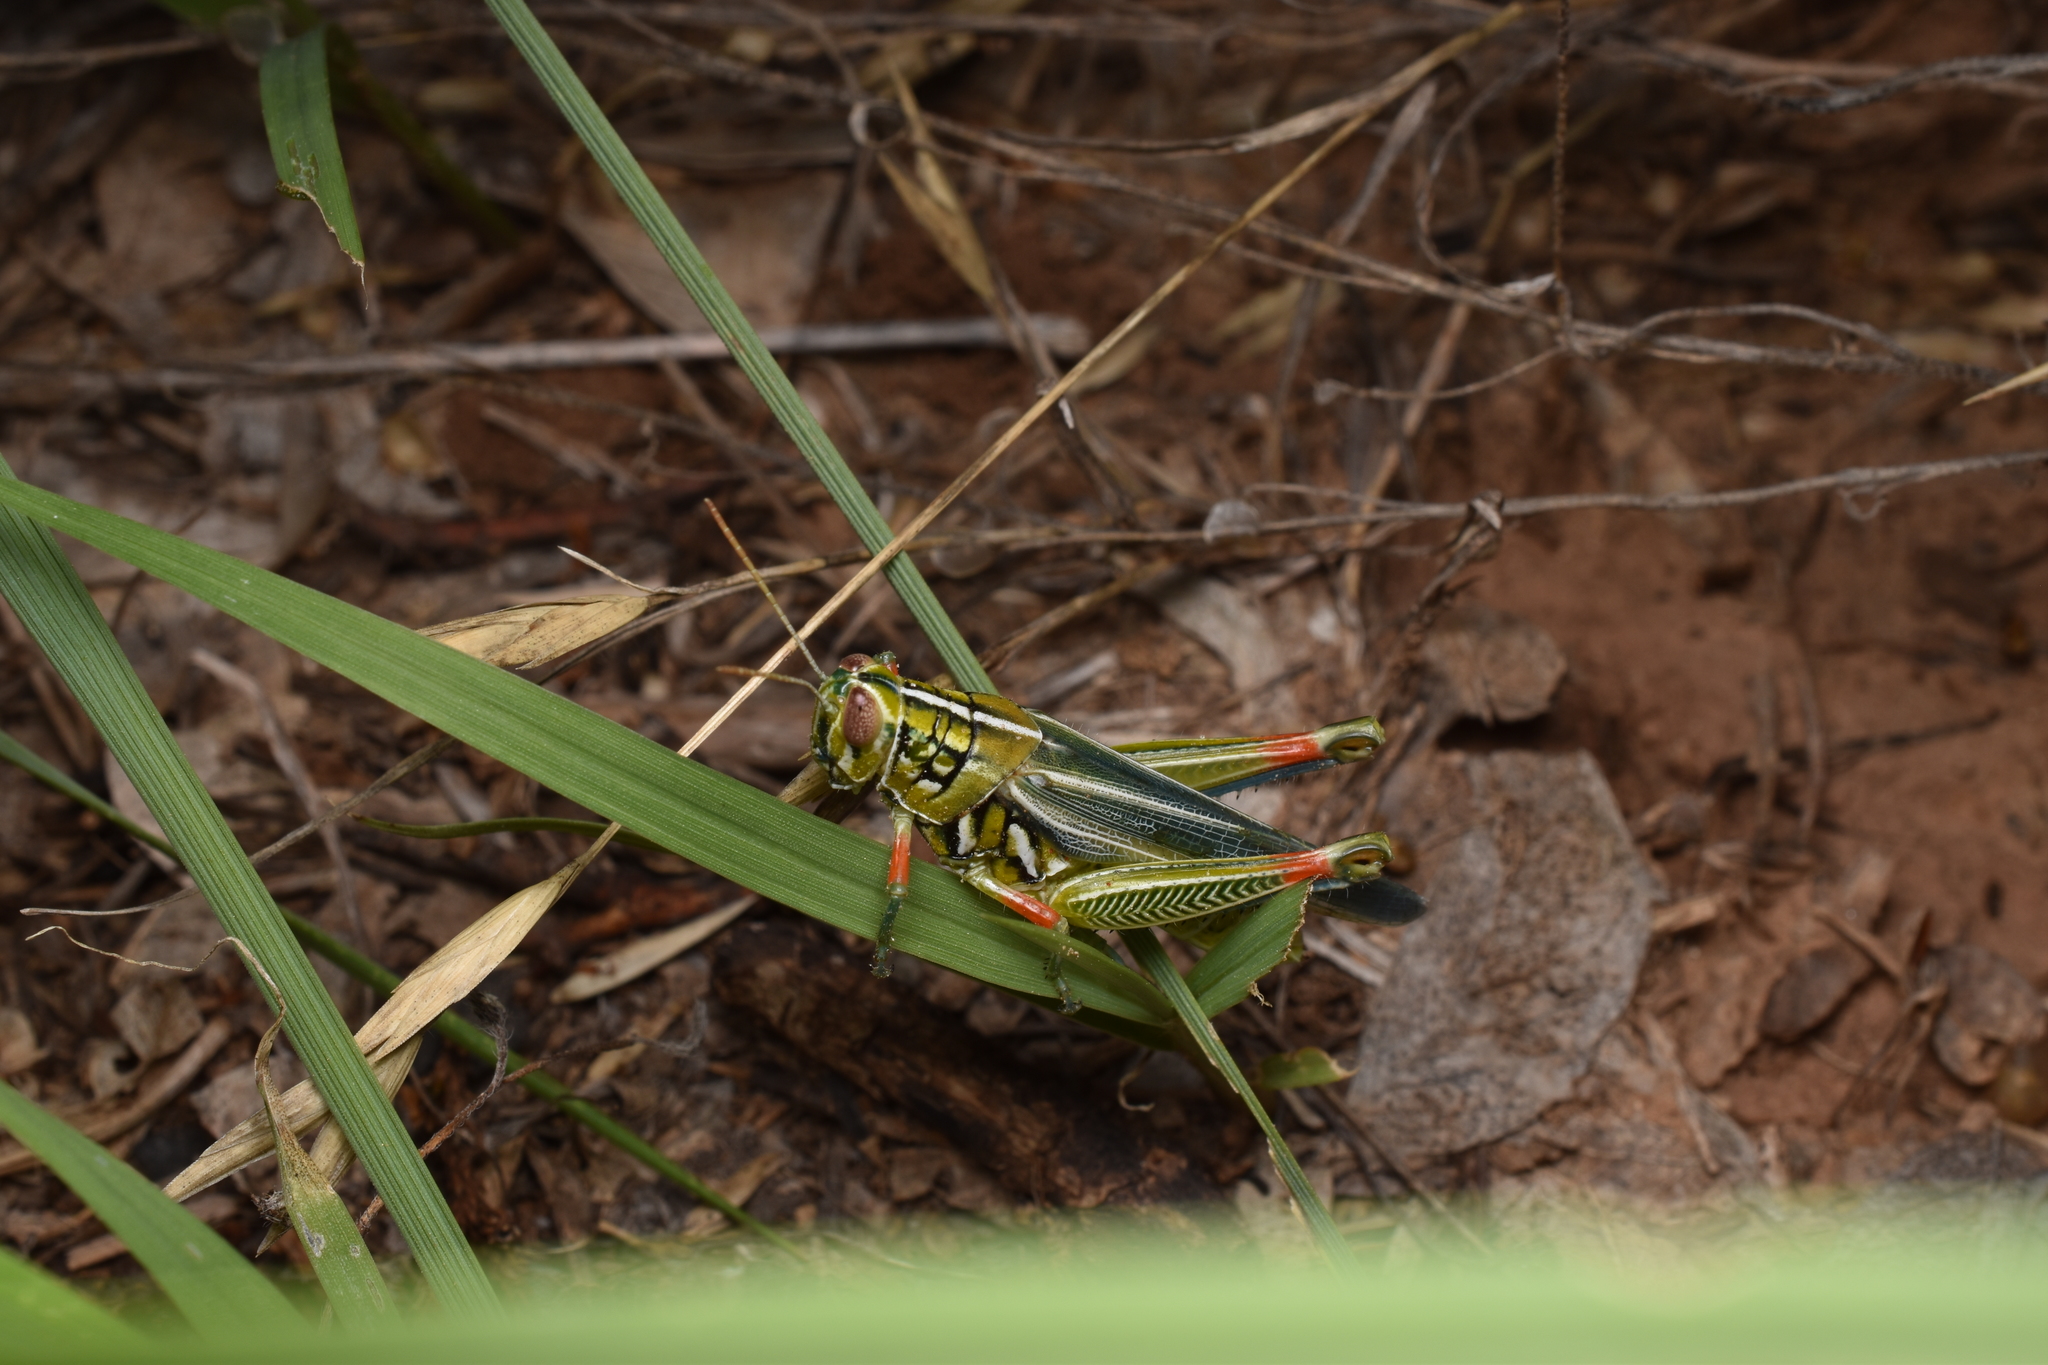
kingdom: Animalia
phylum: Arthropoda
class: Insecta
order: Orthoptera
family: Acrididae
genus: Hesperotettix
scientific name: Hesperotettix viridis
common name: Meadow purple-striped grasshopper
